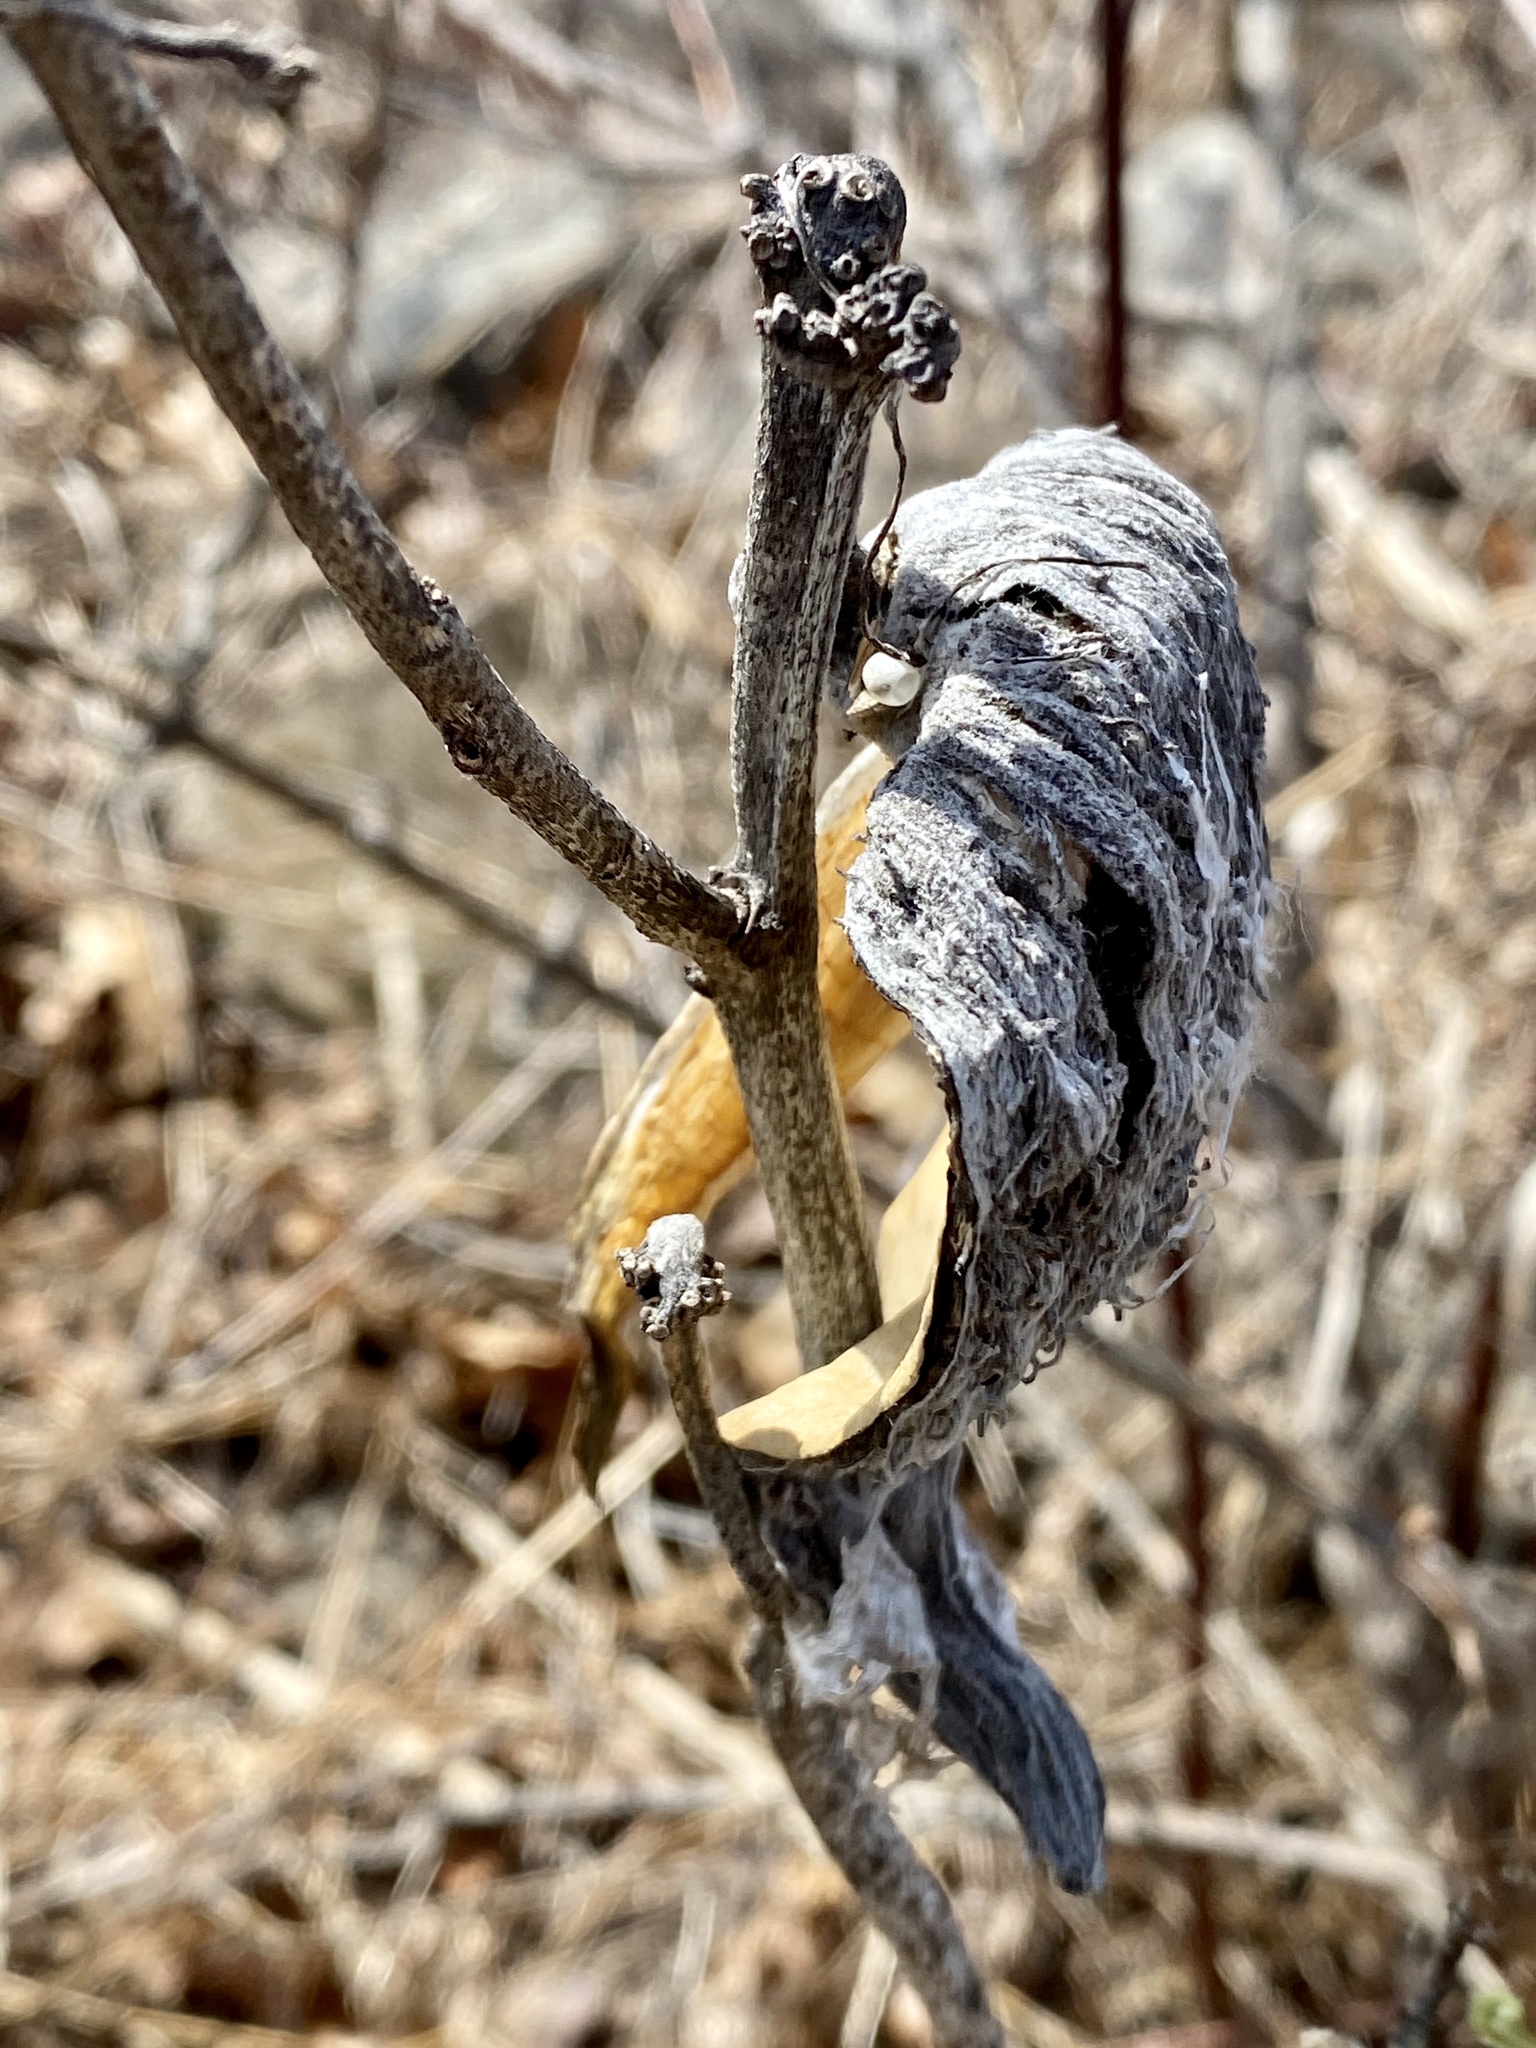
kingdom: Plantae
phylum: Tracheophyta
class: Magnoliopsida
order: Gentianales
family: Apocynaceae
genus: Asclepias
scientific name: Asclepias syriaca
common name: Common milkweed
